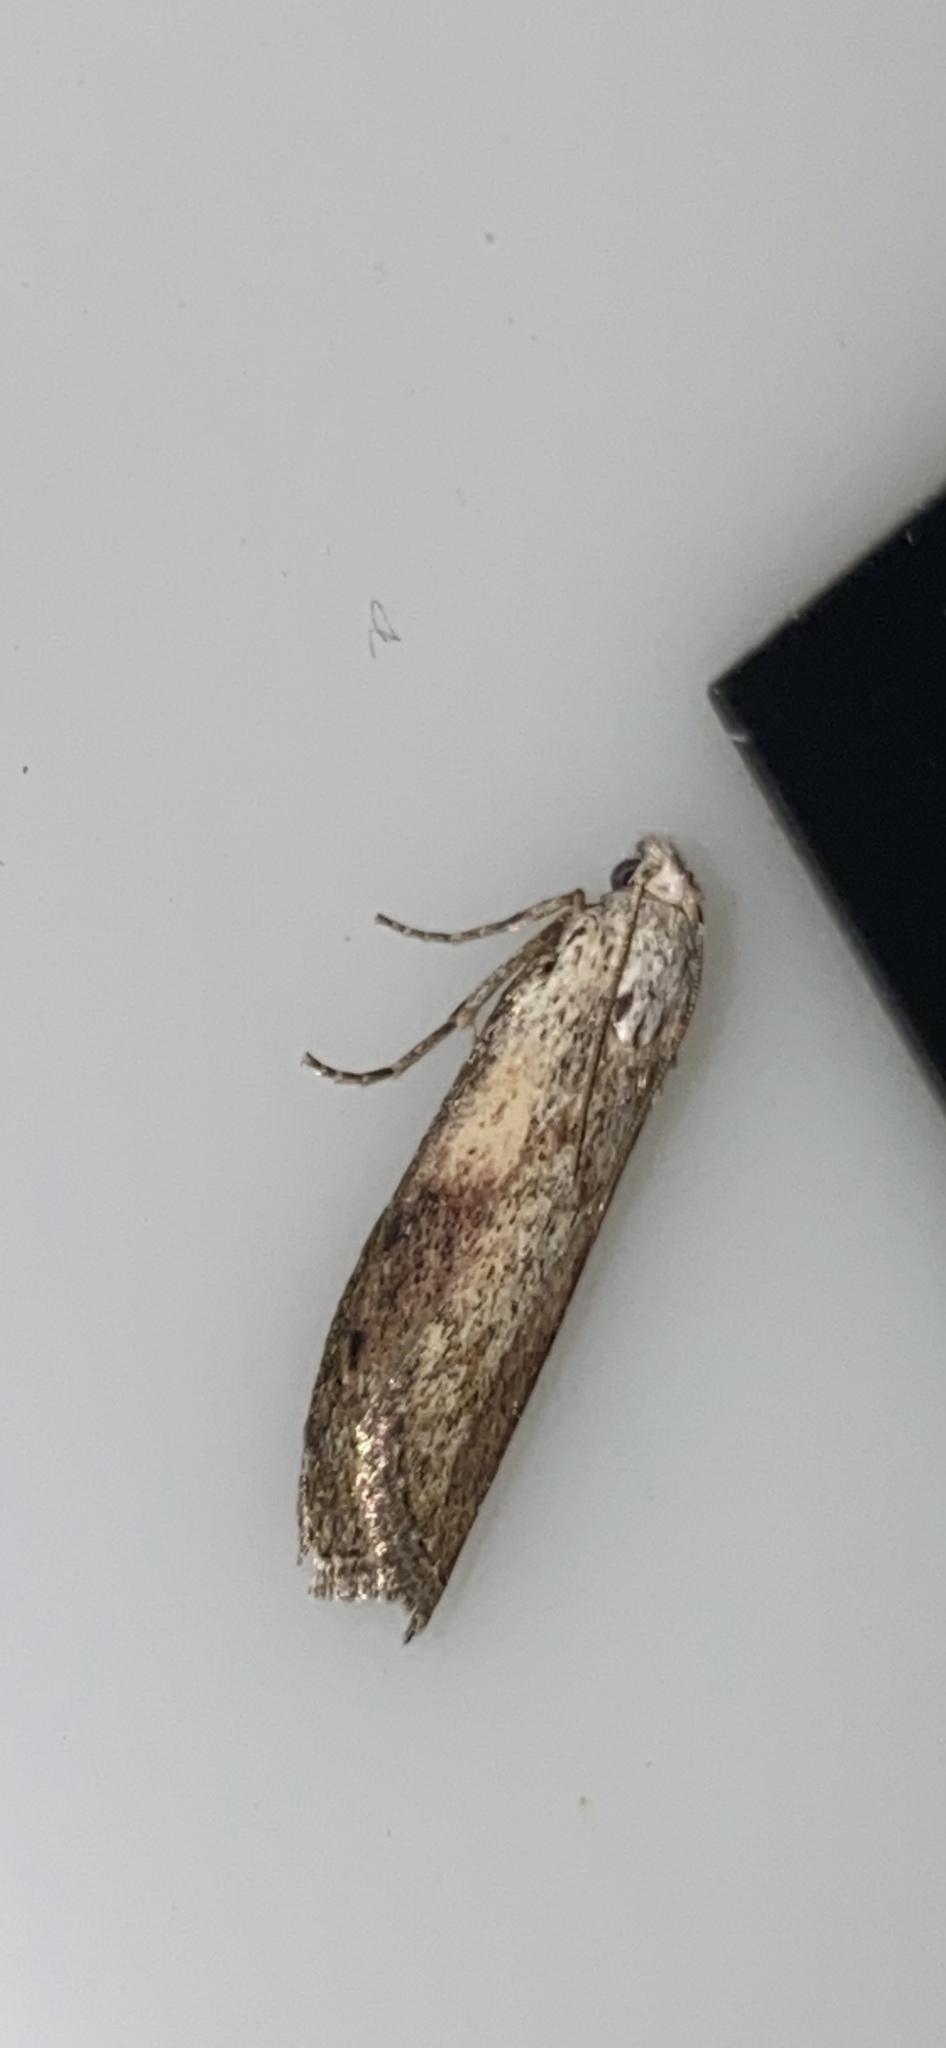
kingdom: Animalia
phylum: Arthropoda
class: Insecta
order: Lepidoptera
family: Pyralidae
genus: Aphomia
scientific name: Aphomia sociella
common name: Bee moth
